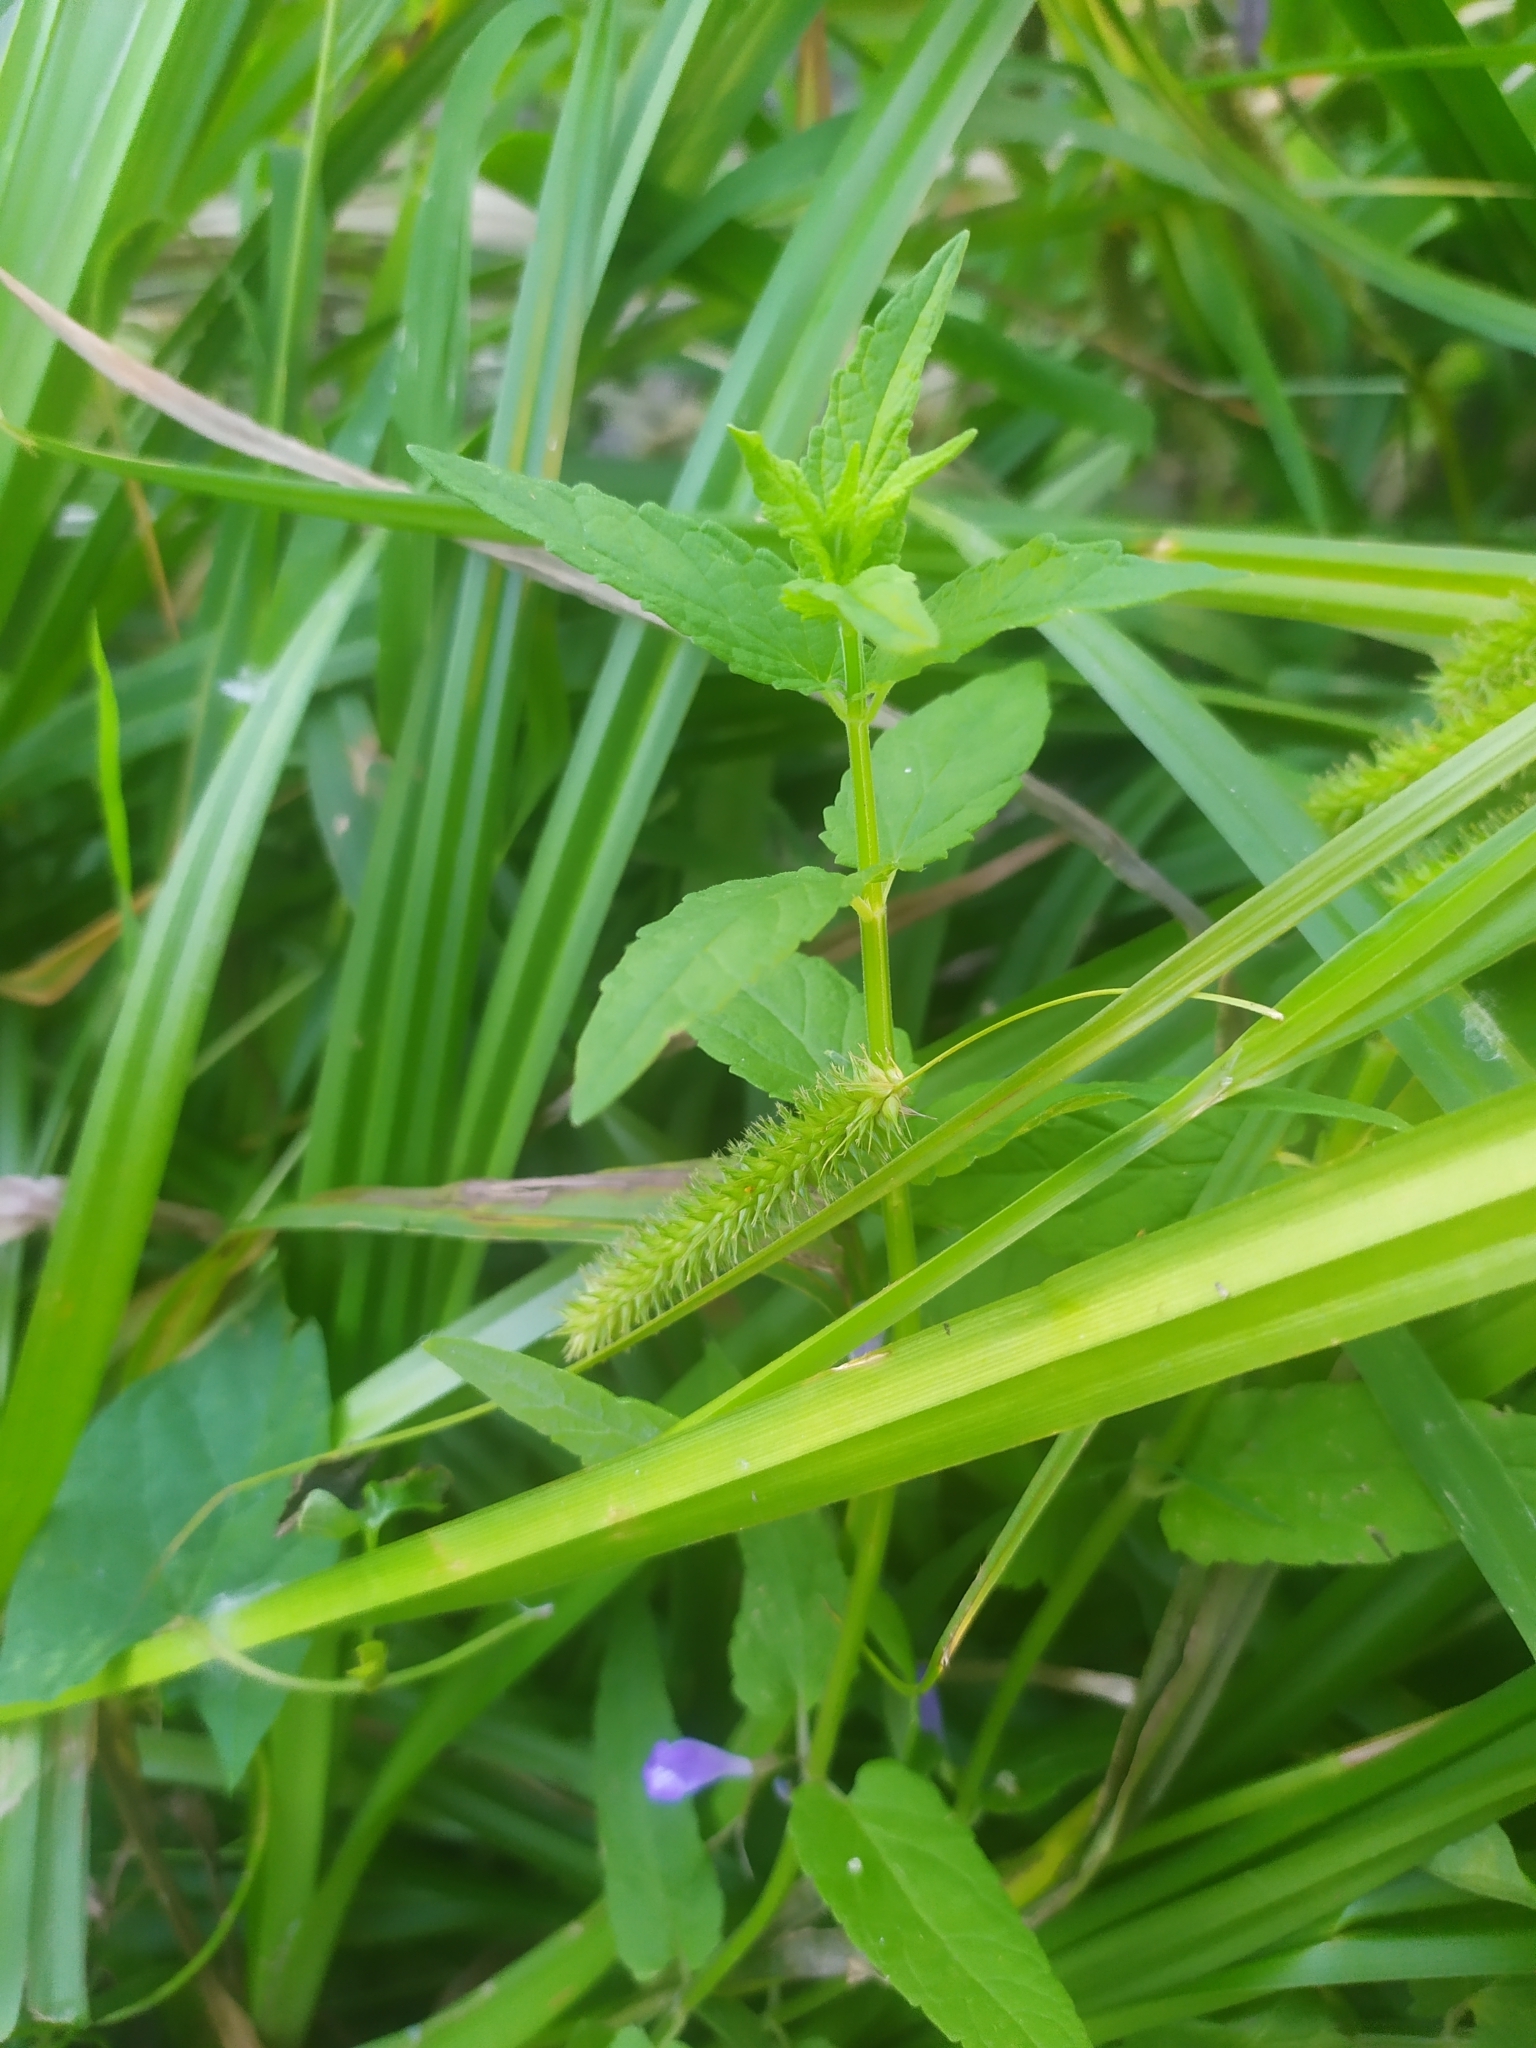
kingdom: Plantae
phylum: Tracheophyta
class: Liliopsida
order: Poales
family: Cyperaceae
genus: Carex
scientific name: Carex pseudocyperus
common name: Cyperus sedge
